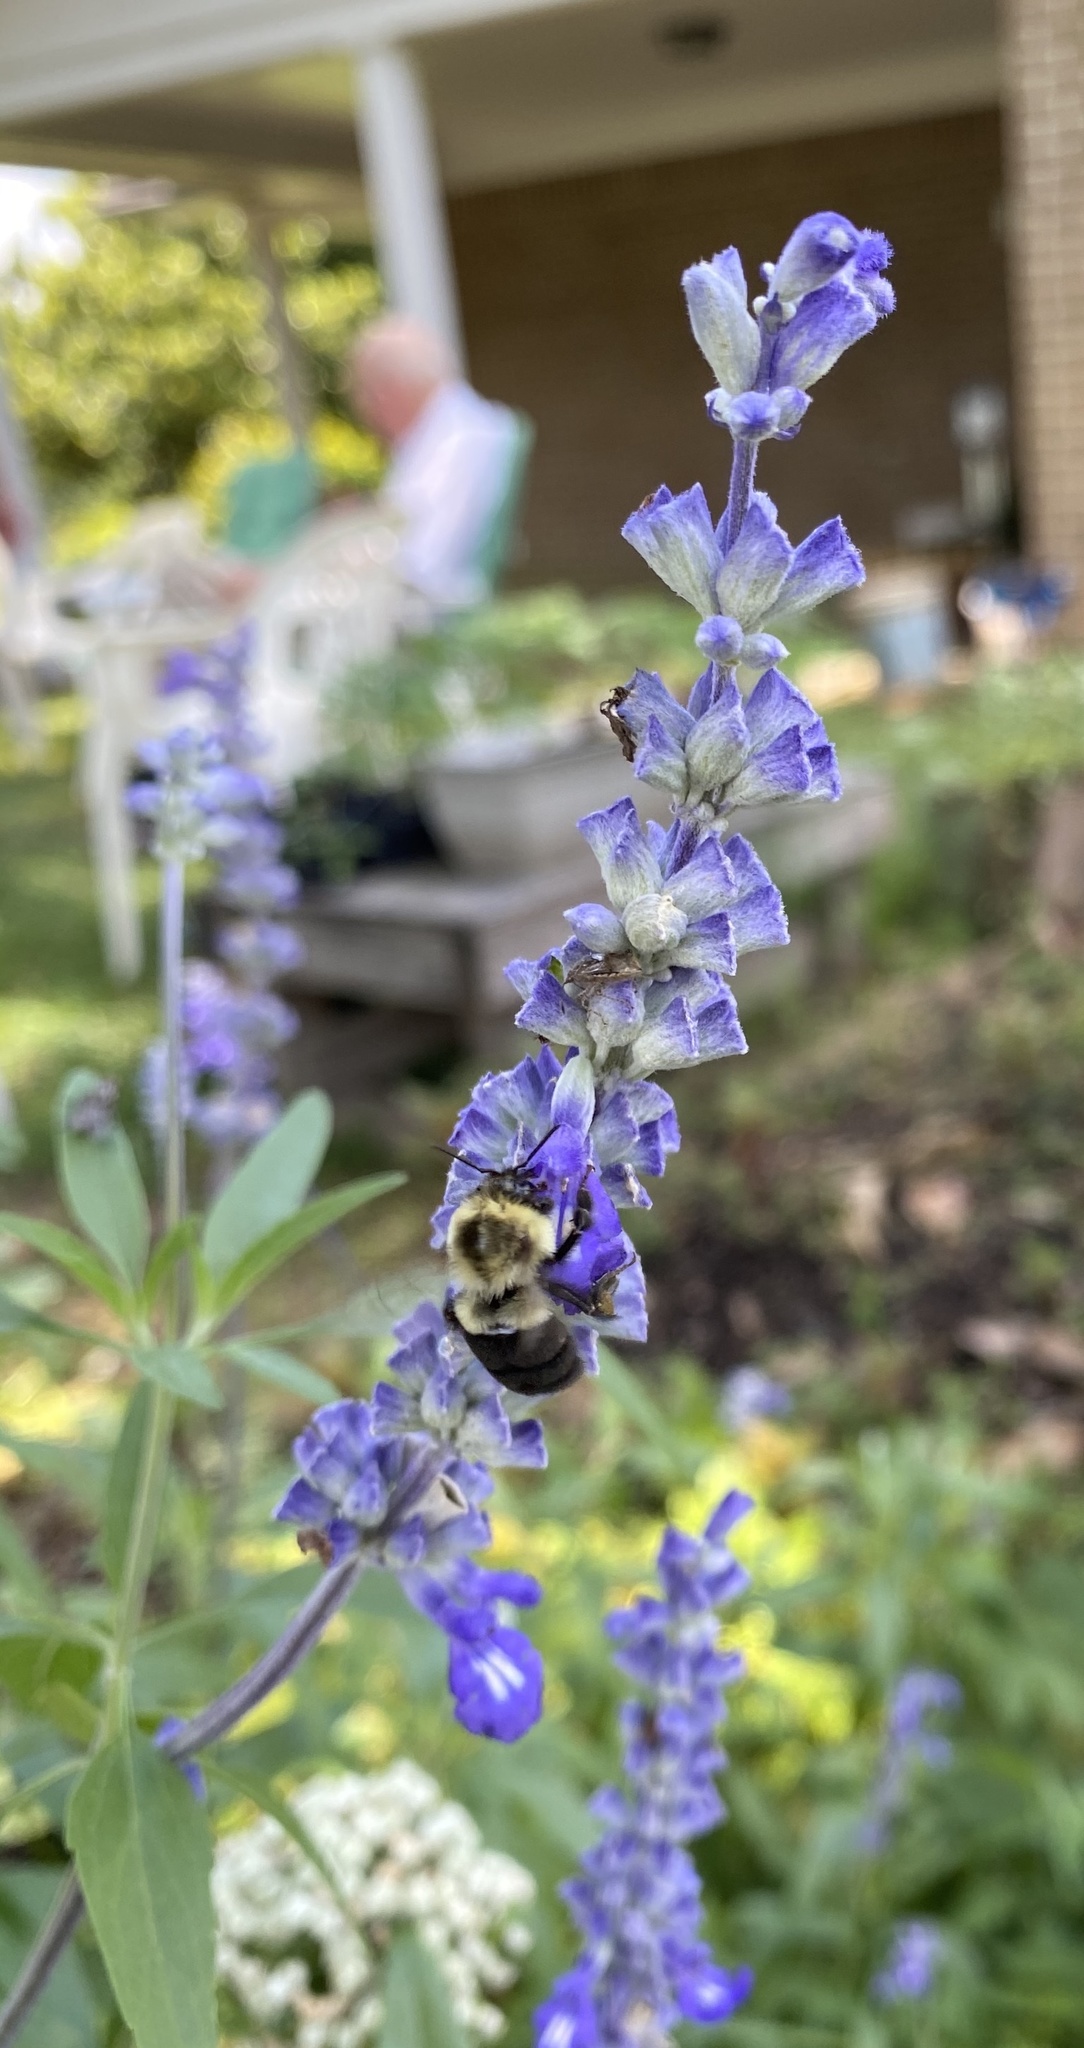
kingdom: Animalia
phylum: Arthropoda
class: Insecta
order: Hymenoptera
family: Apidae
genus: Bombus
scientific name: Bombus impatiens
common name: Common eastern bumble bee
